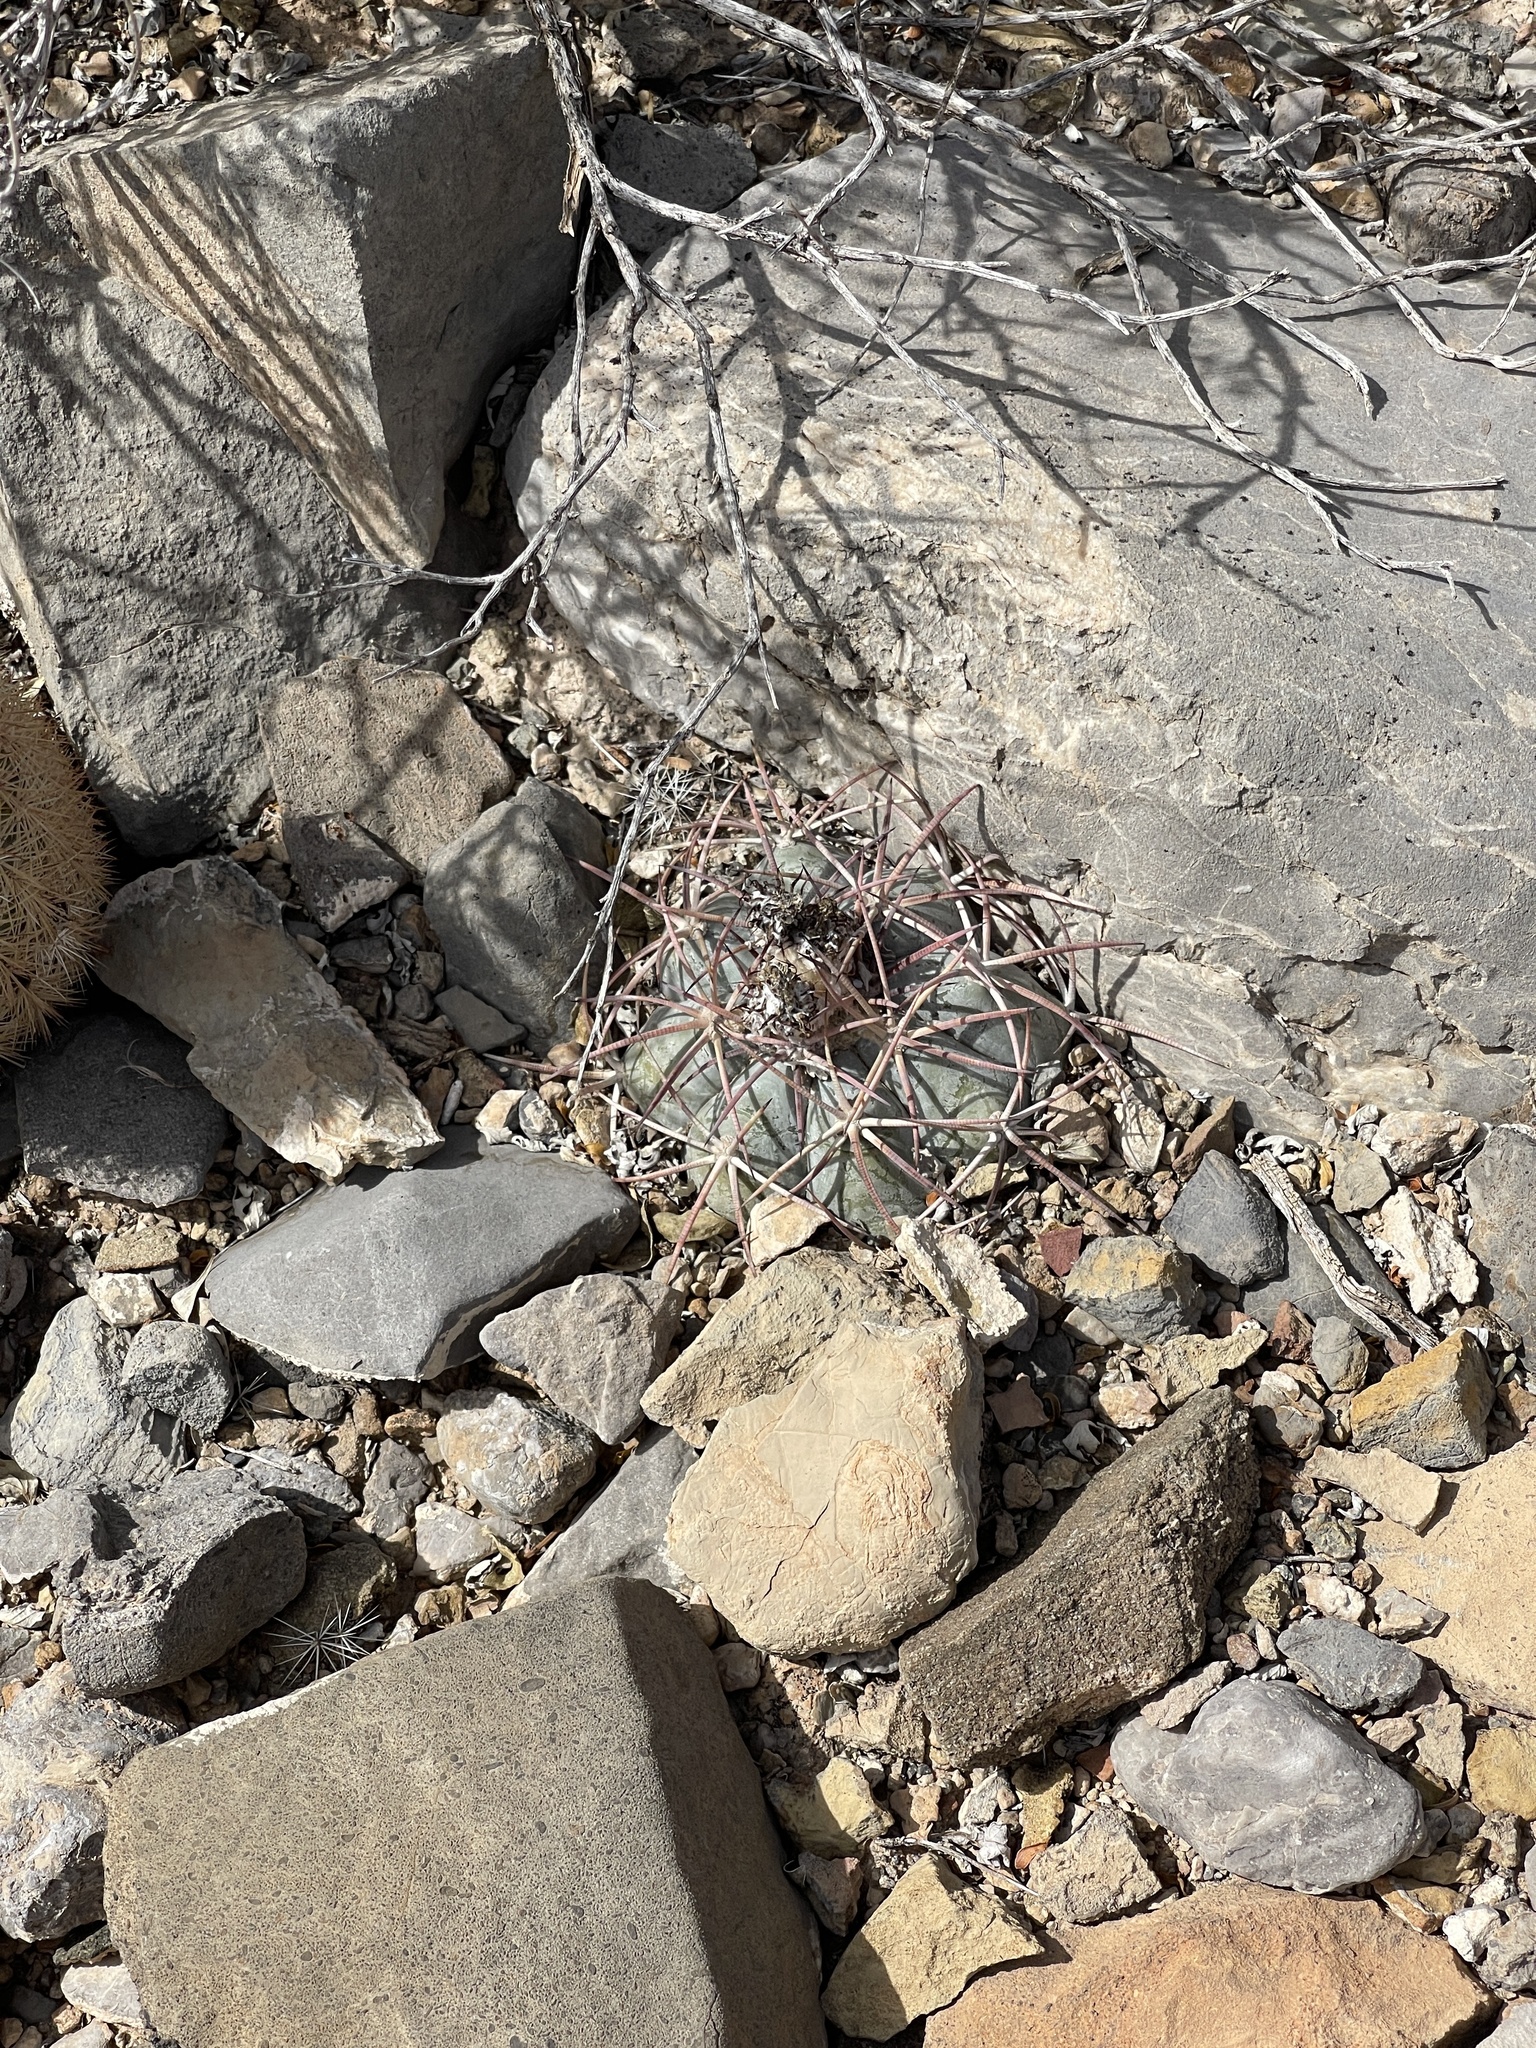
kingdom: Plantae
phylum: Tracheophyta
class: Magnoliopsida
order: Caryophyllales
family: Cactaceae
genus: Echinocactus
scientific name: Echinocactus horizonthalonius
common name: Devilshead
